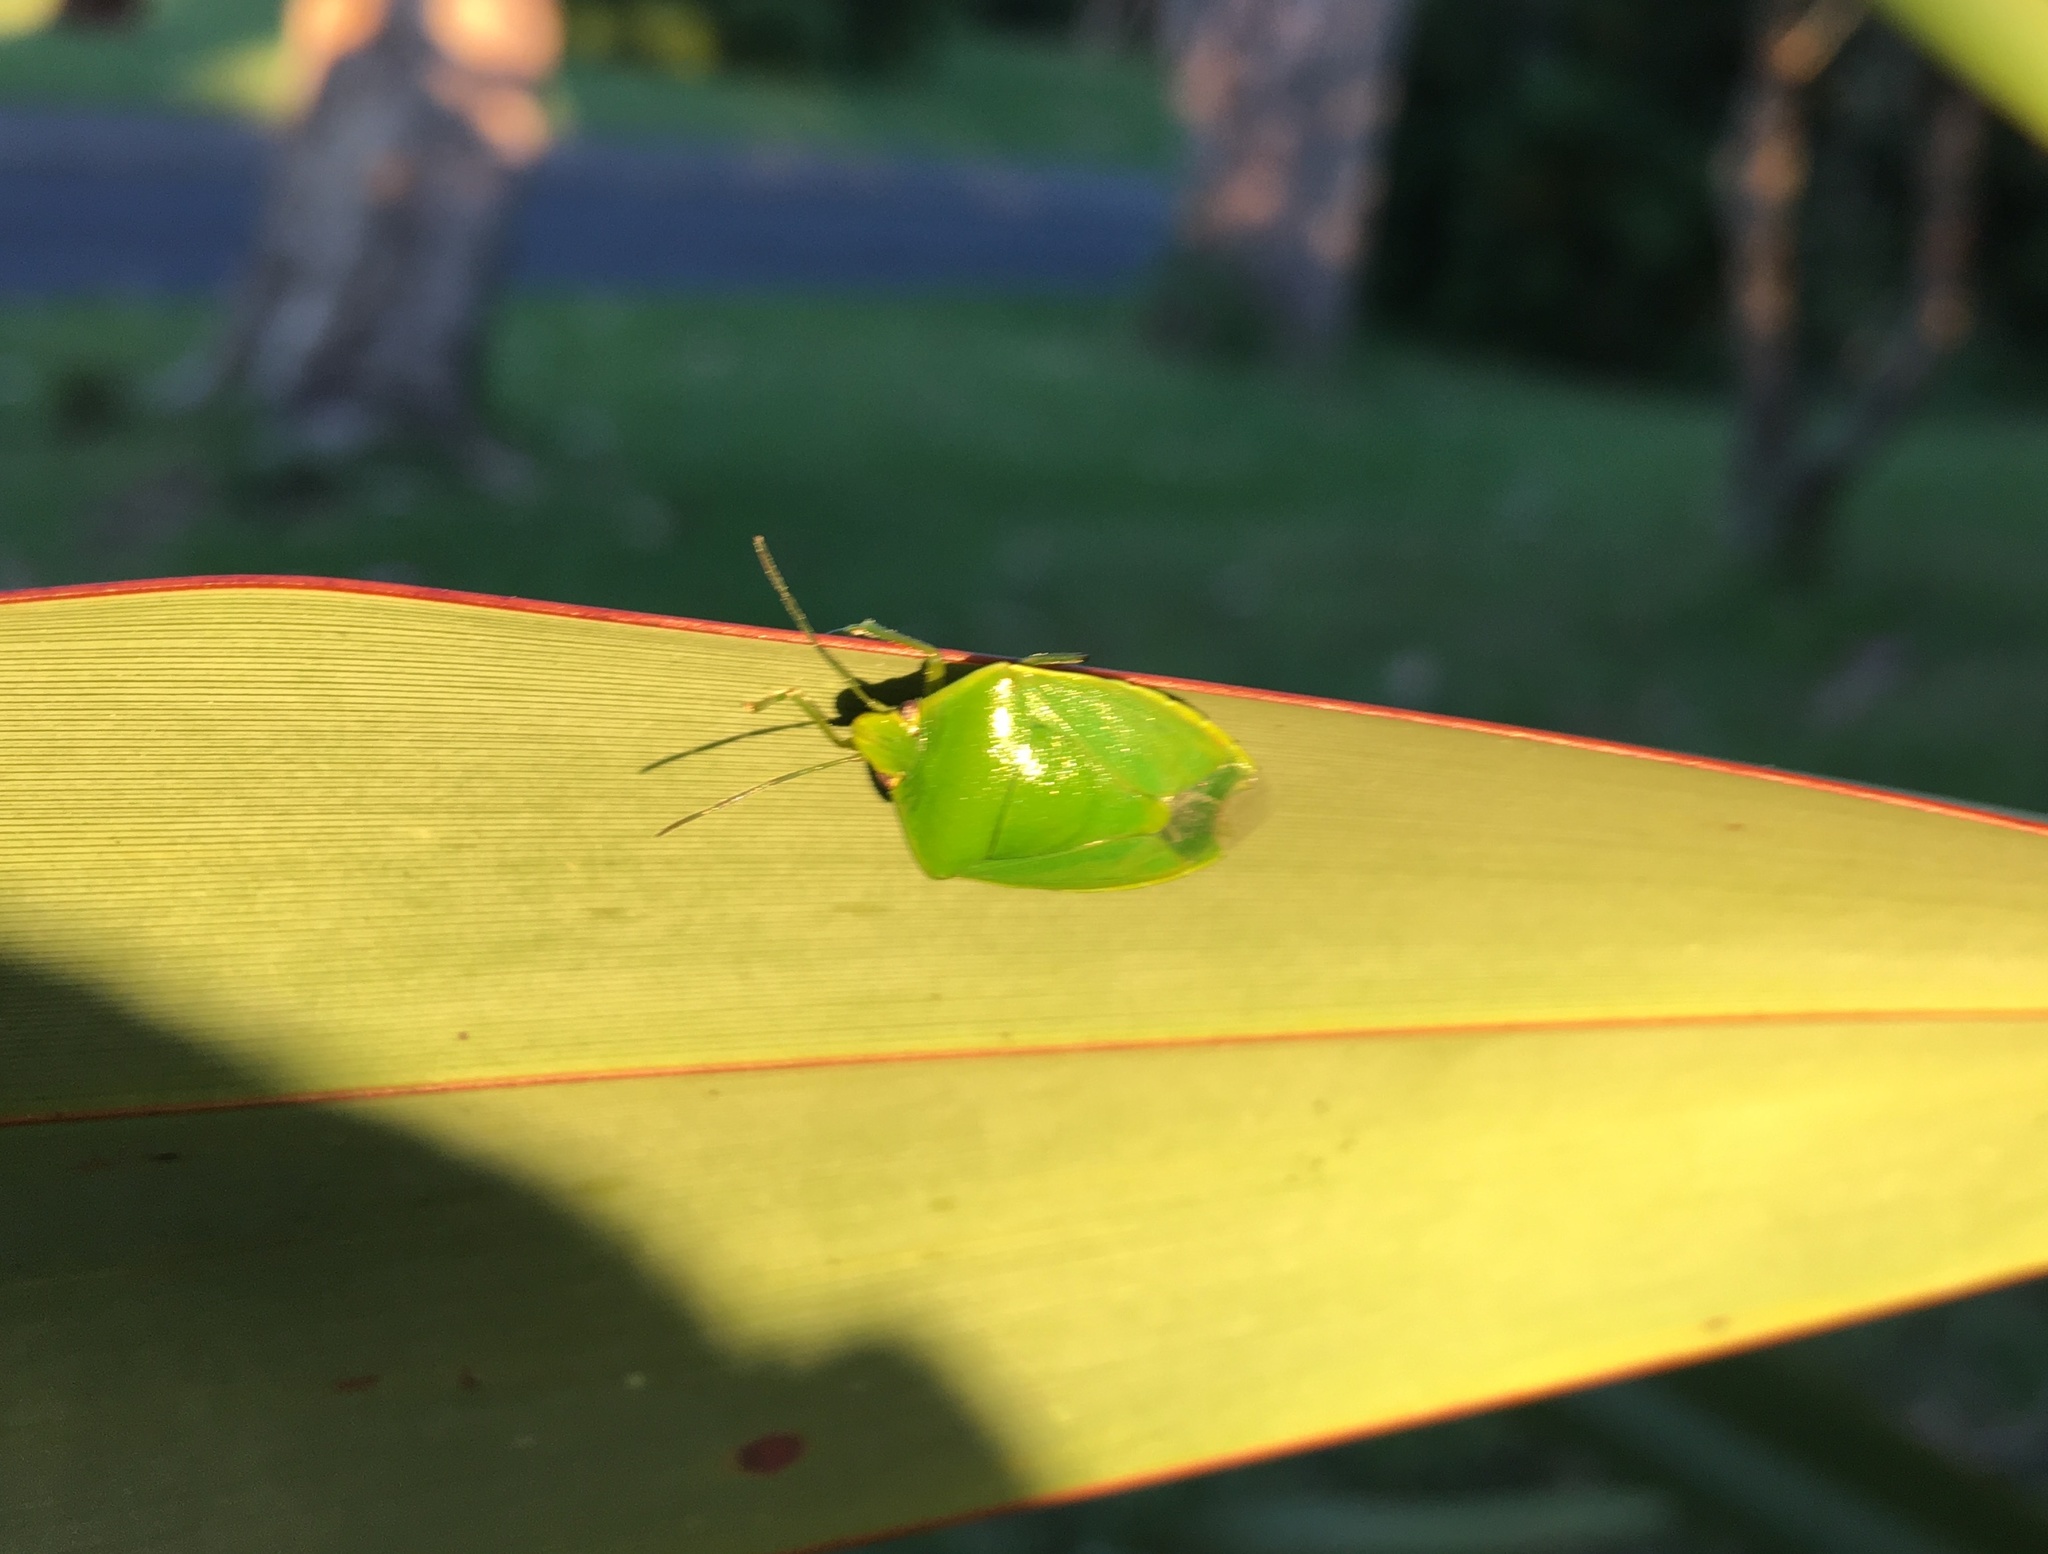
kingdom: Animalia
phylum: Arthropoda
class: Insecta
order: Hemiptera
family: Pentatomidae
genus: Glaucias
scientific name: Glaucias amyota
